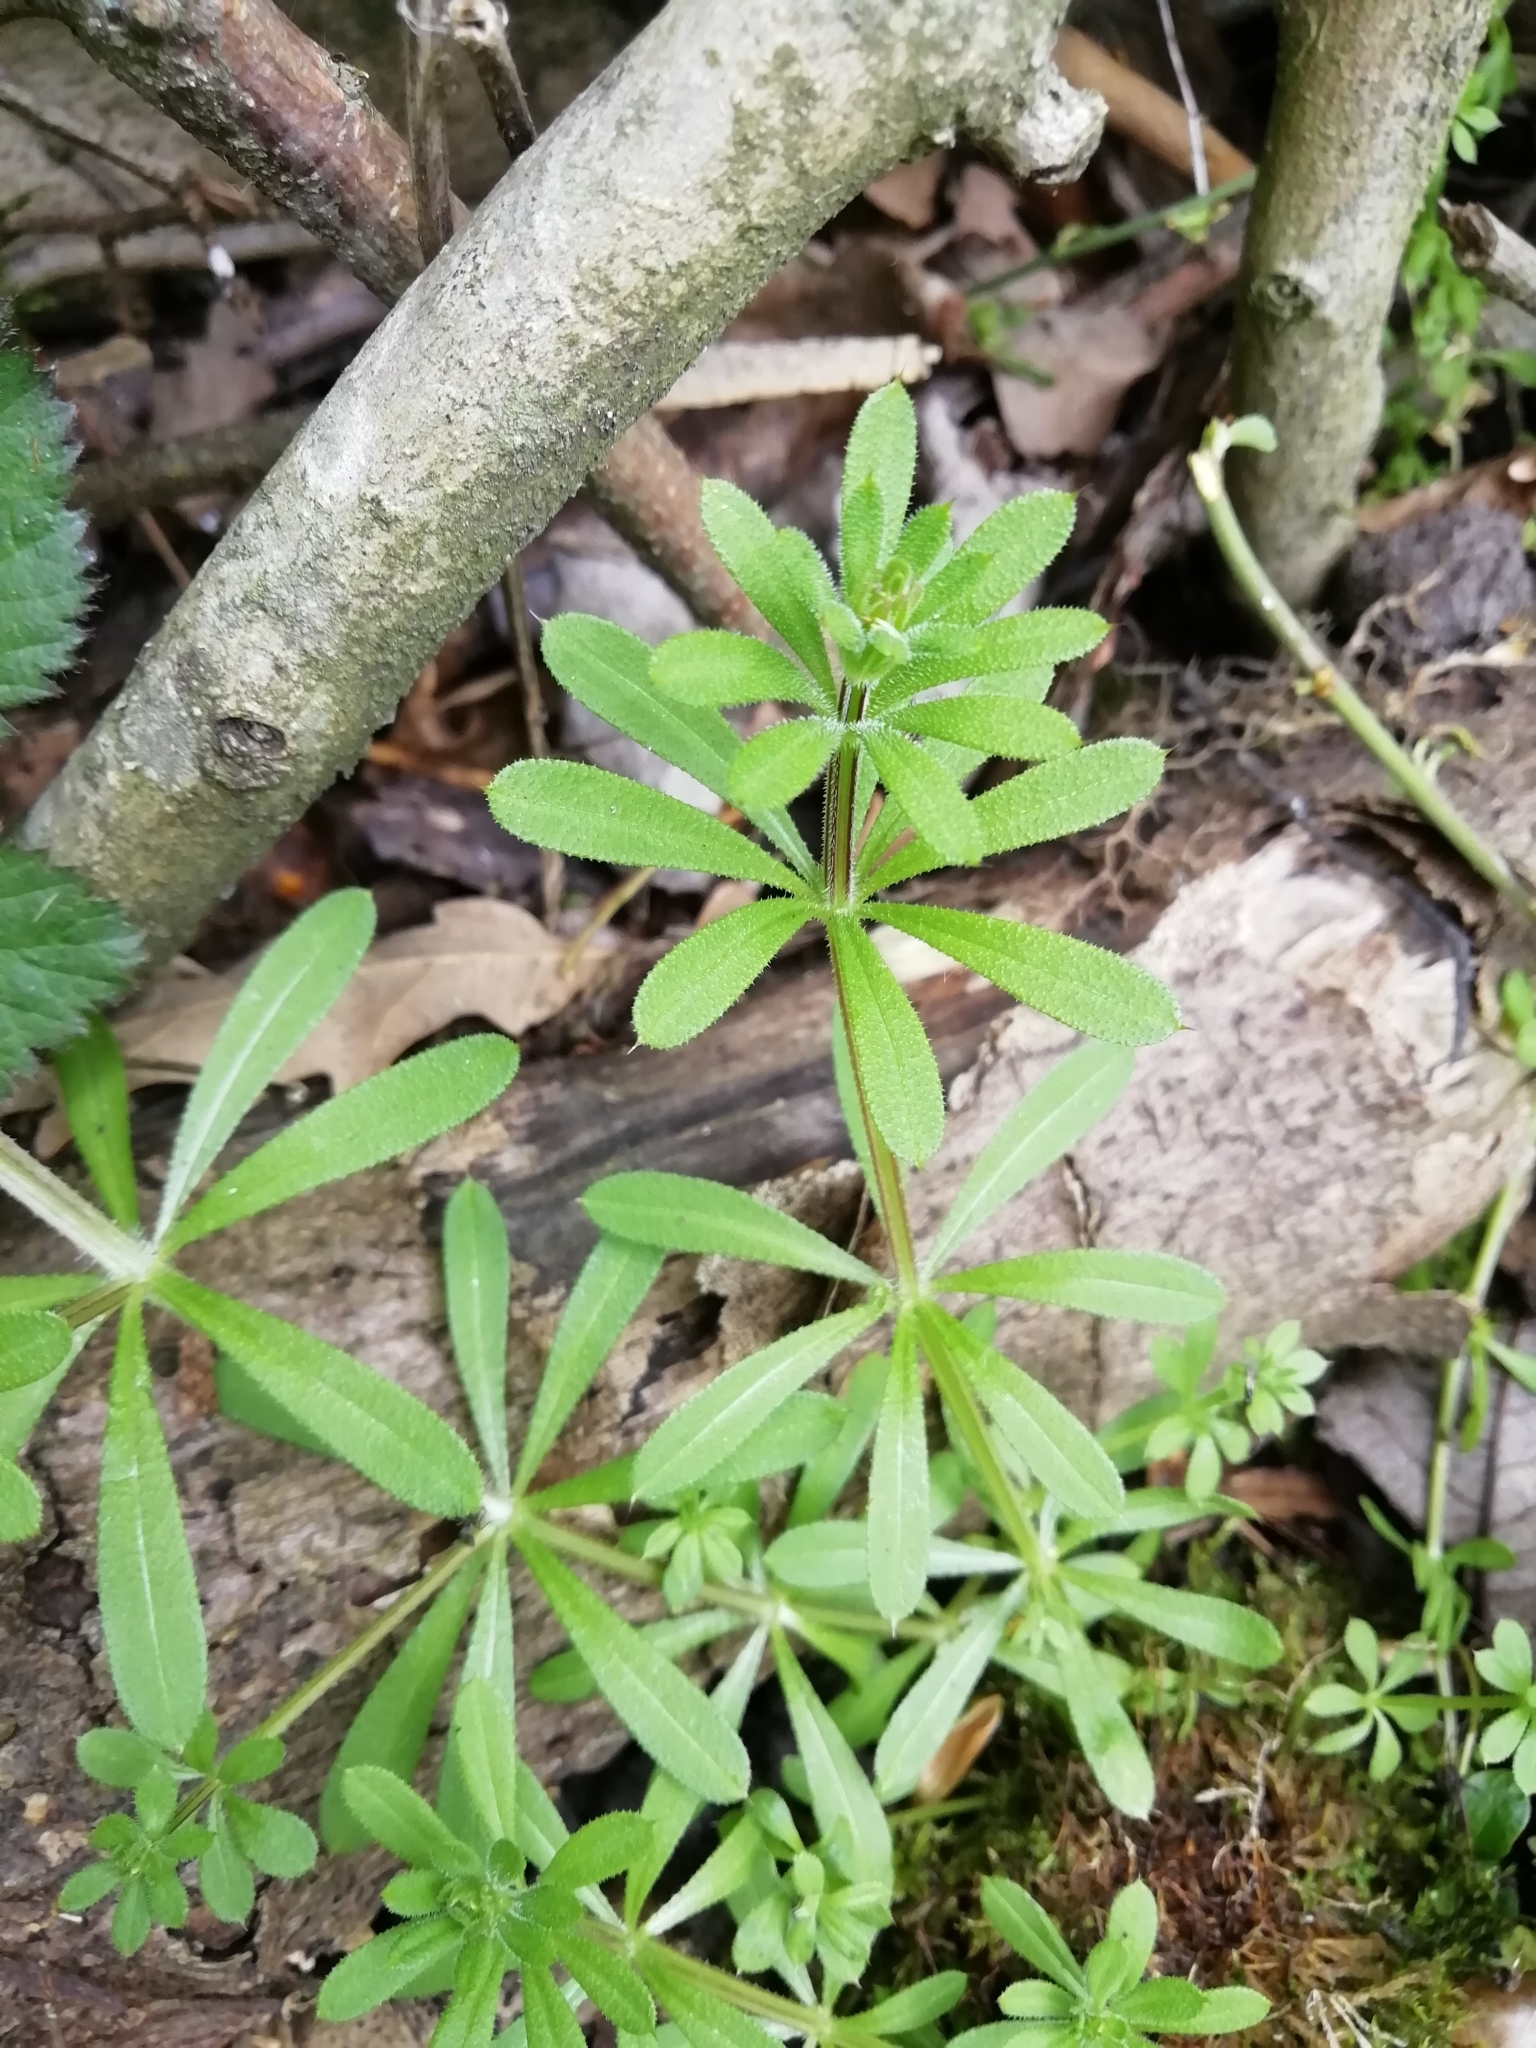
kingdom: Plantae
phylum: Tracheophyta
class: Magnoliopsida
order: Gentianales
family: Rubiaceae
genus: Galium
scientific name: Galium aparine
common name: Cleavers
